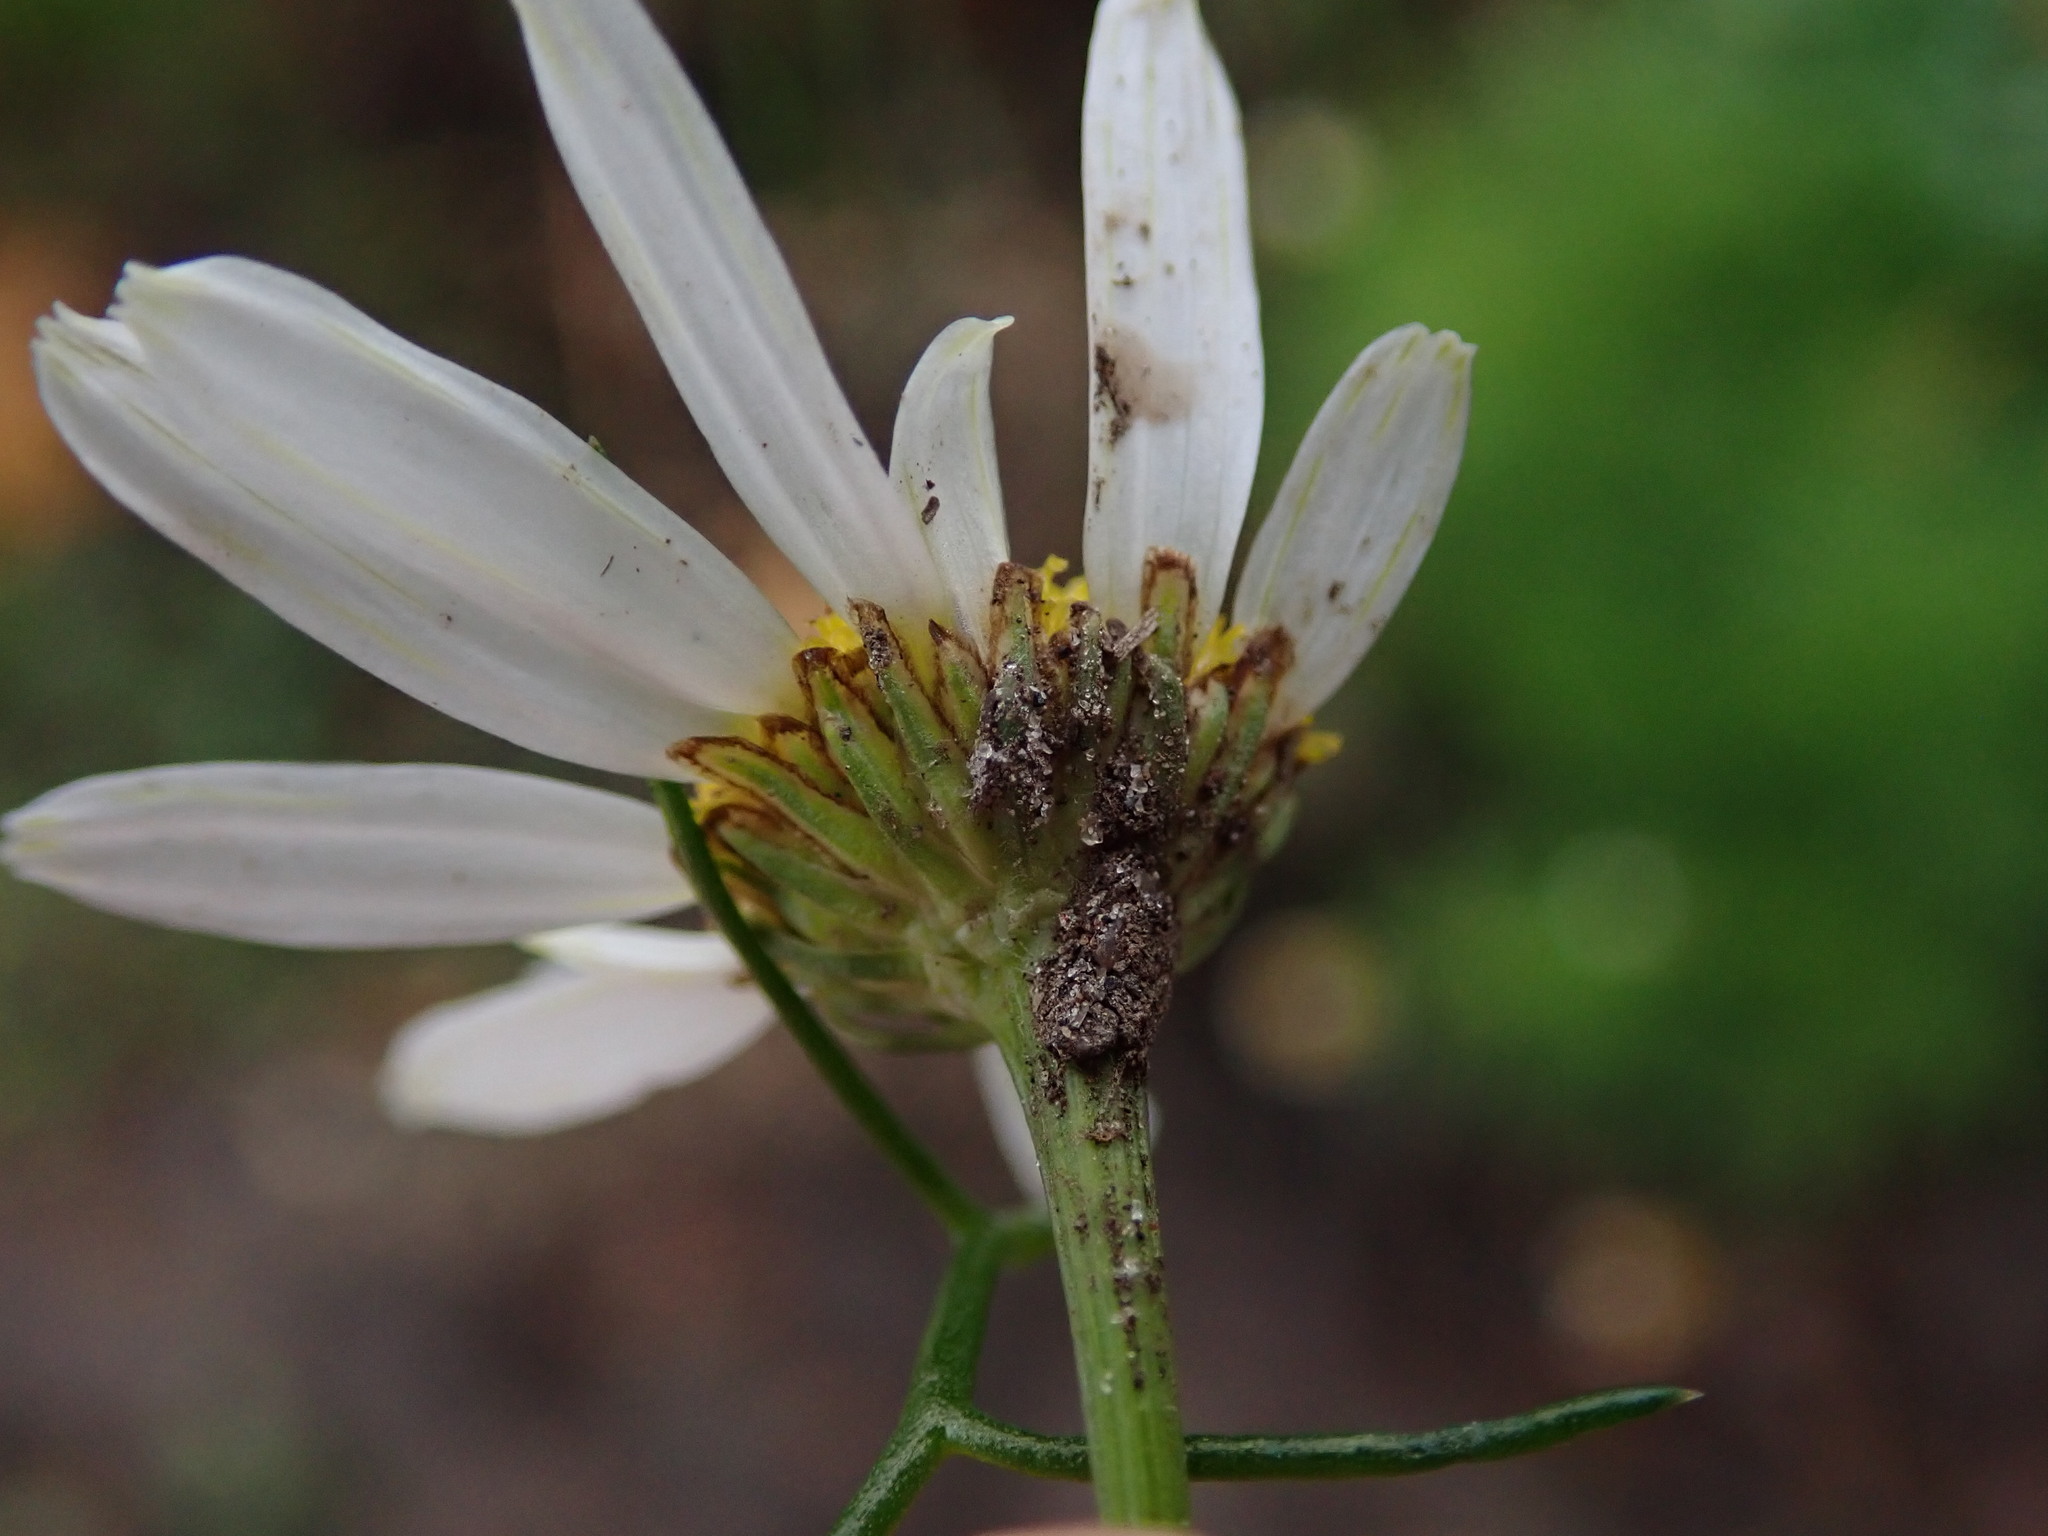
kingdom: Plantae
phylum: Tracheophyta
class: Magnoliopsida
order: Asterales
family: Asteraceae
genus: Tripleurospermum
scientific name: Tripleurospermum inodorum
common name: Scentless mayweed
